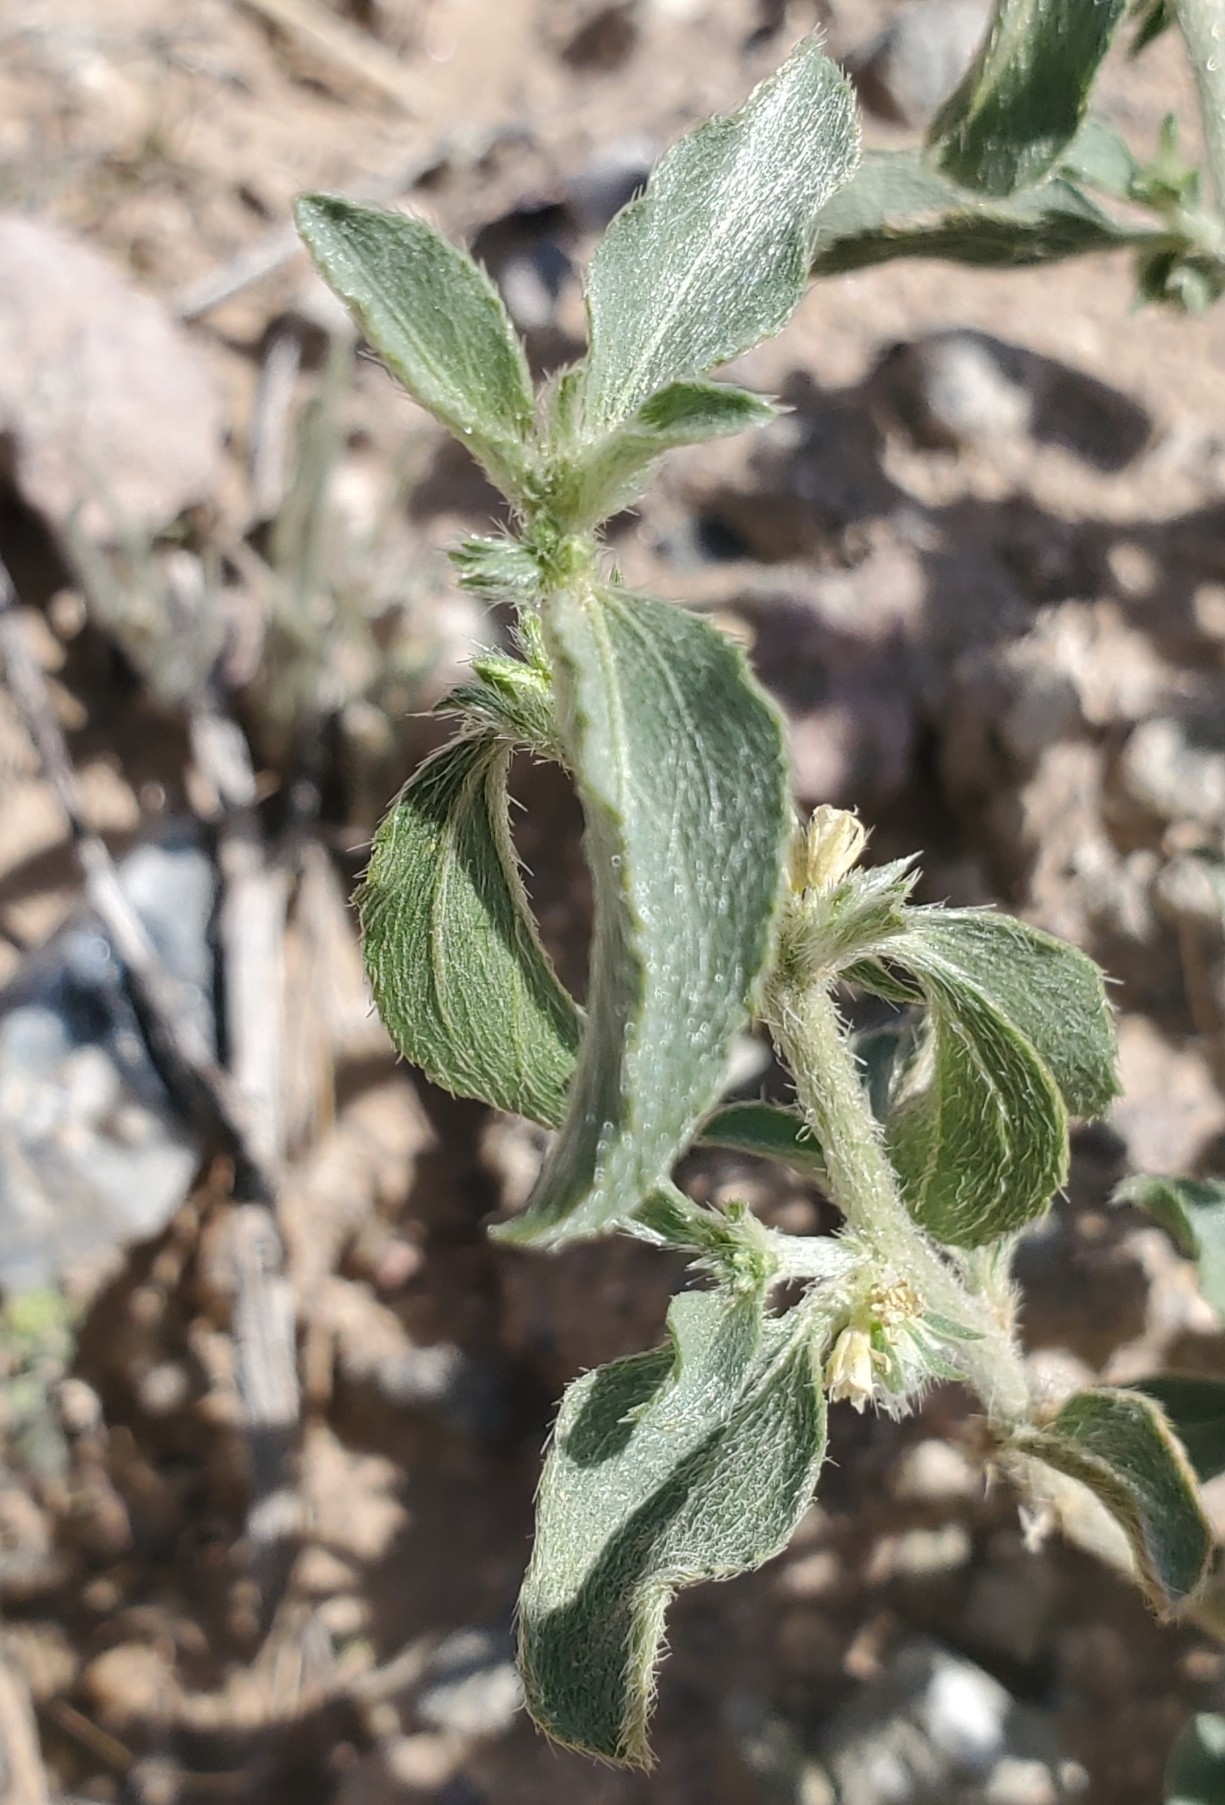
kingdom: Plantae
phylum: Tracheophyta
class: Magnoliopsida
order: Malpighiales
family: Euphorbiaceae
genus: Ditaxis
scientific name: Ditaxis serrata
